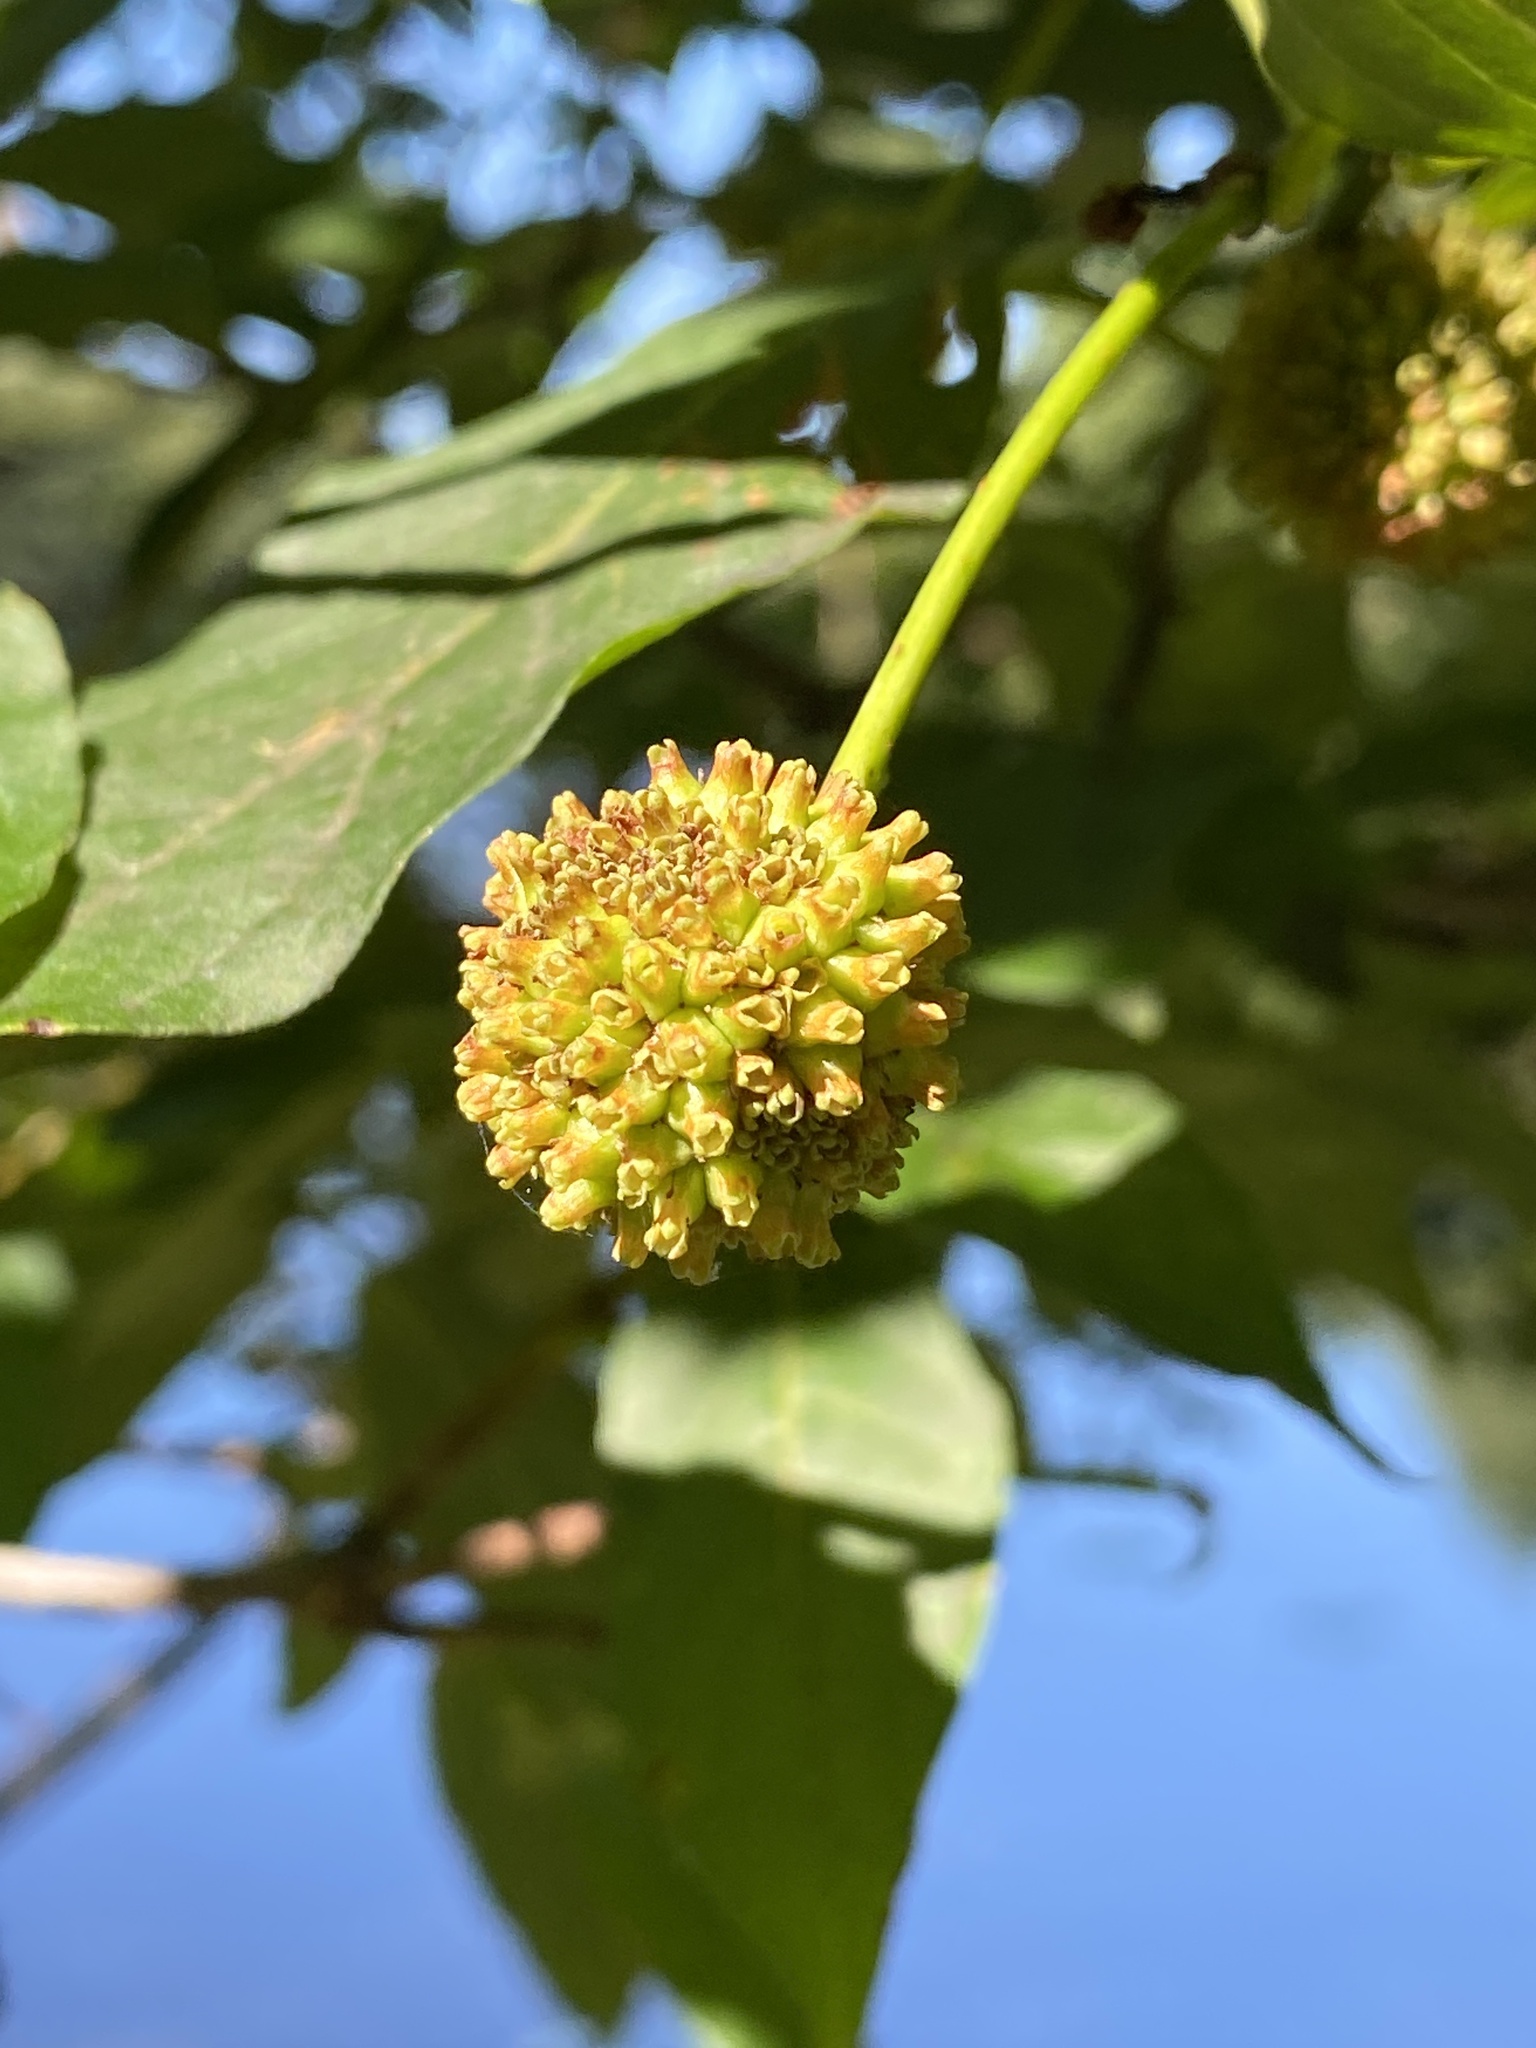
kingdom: Plantae
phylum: Tracheophyta
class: Magnoliopsida
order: Gentianales
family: Rubiaceae
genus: Cephalanthus
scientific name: Cephalanthus occidentalis
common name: Button-willow
